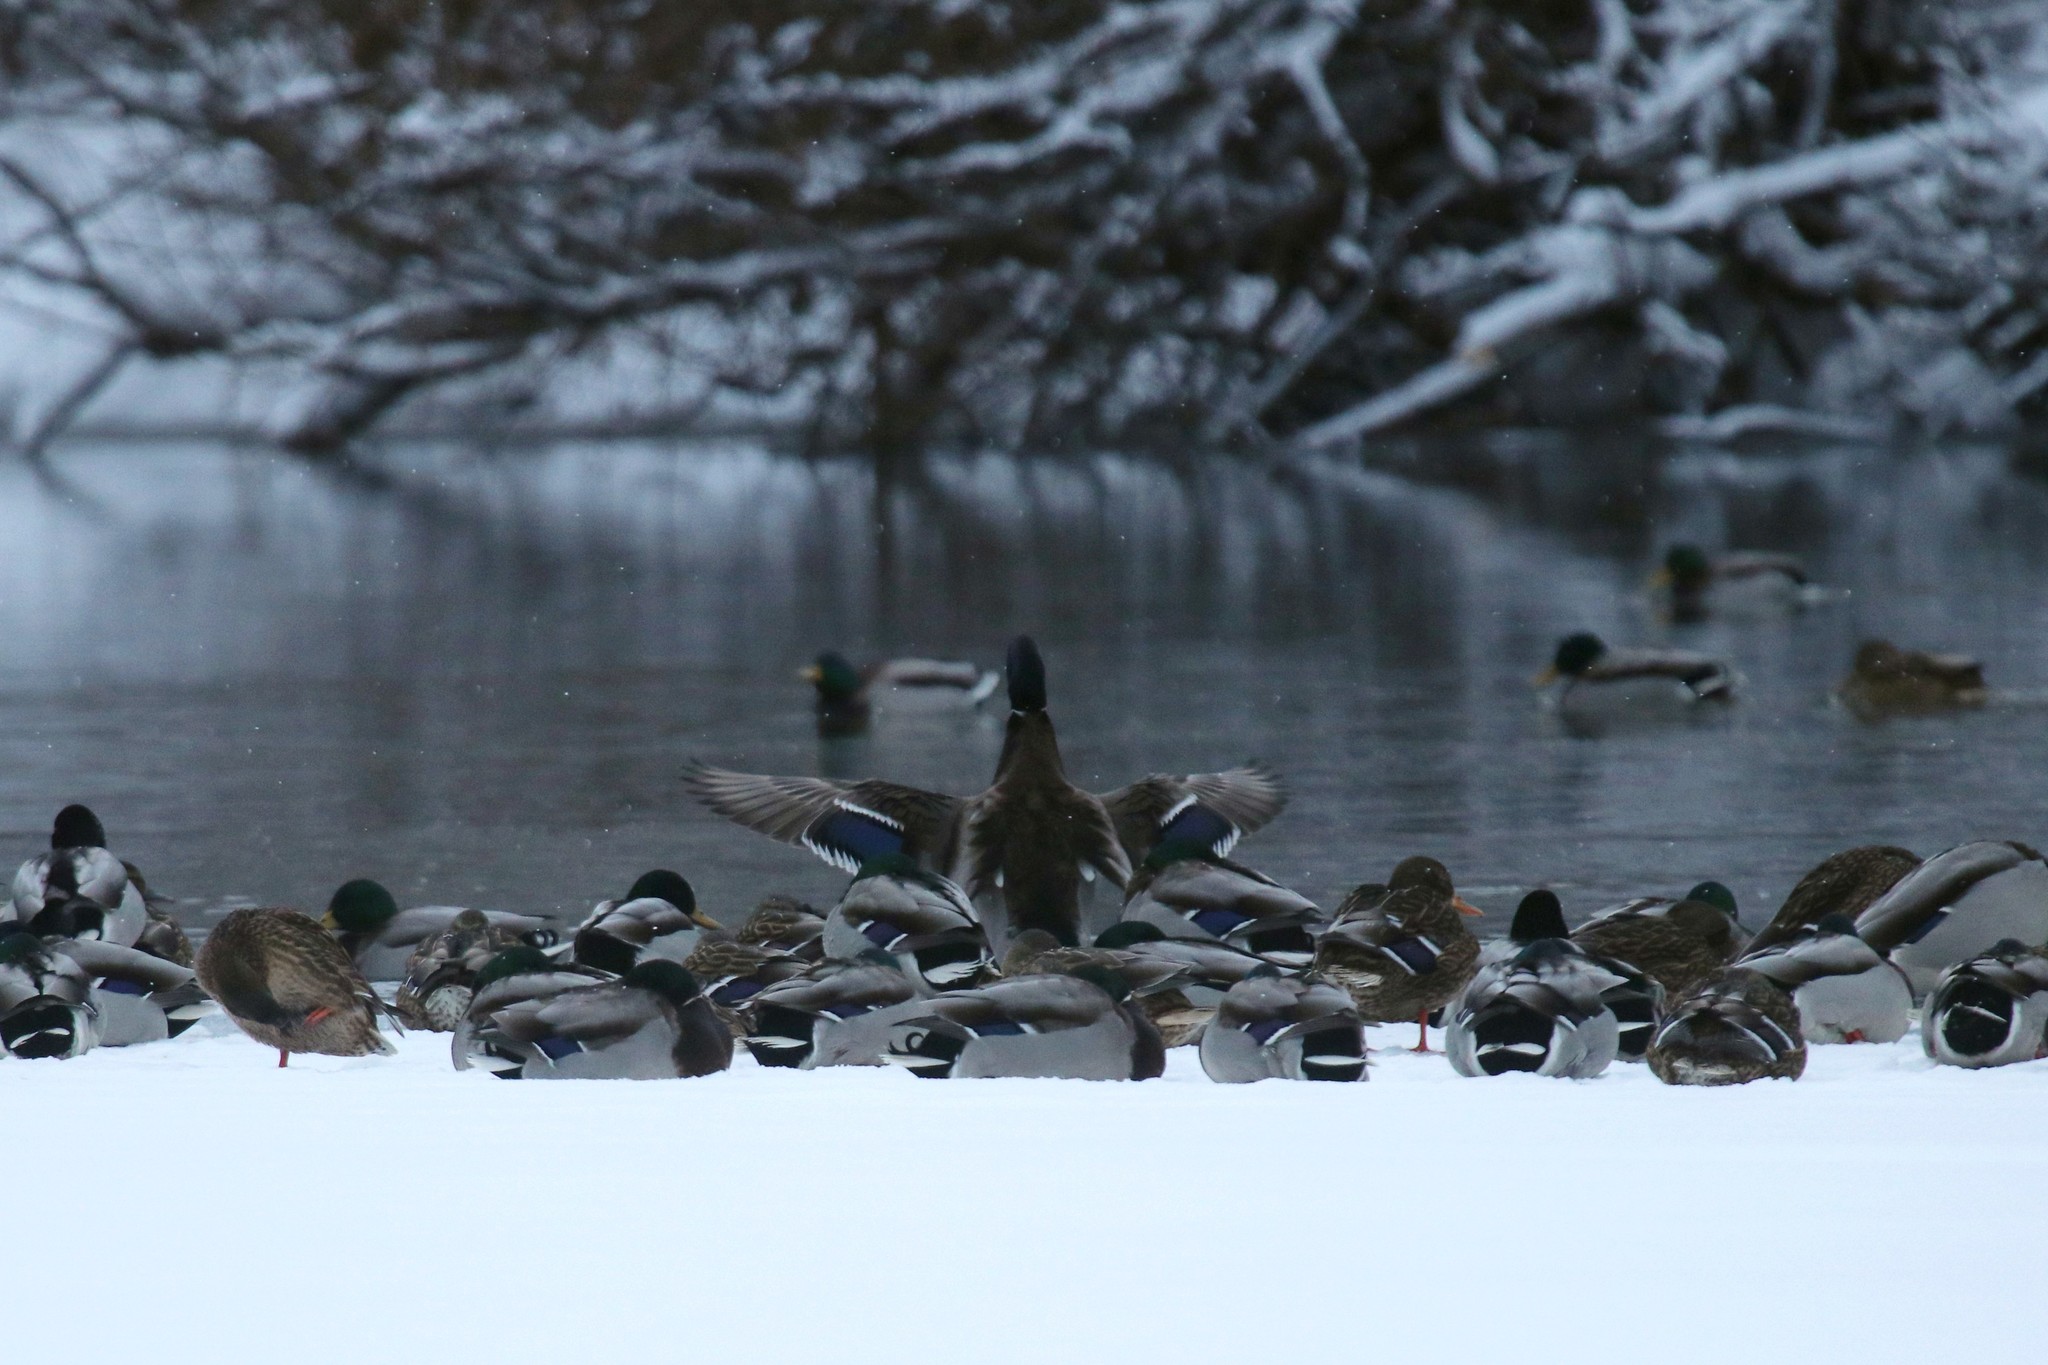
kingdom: Animalia
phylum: Chordata
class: Aves
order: Anseriformes
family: Anatidae
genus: Anas
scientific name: Anas platyrhynchos
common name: Mallard
